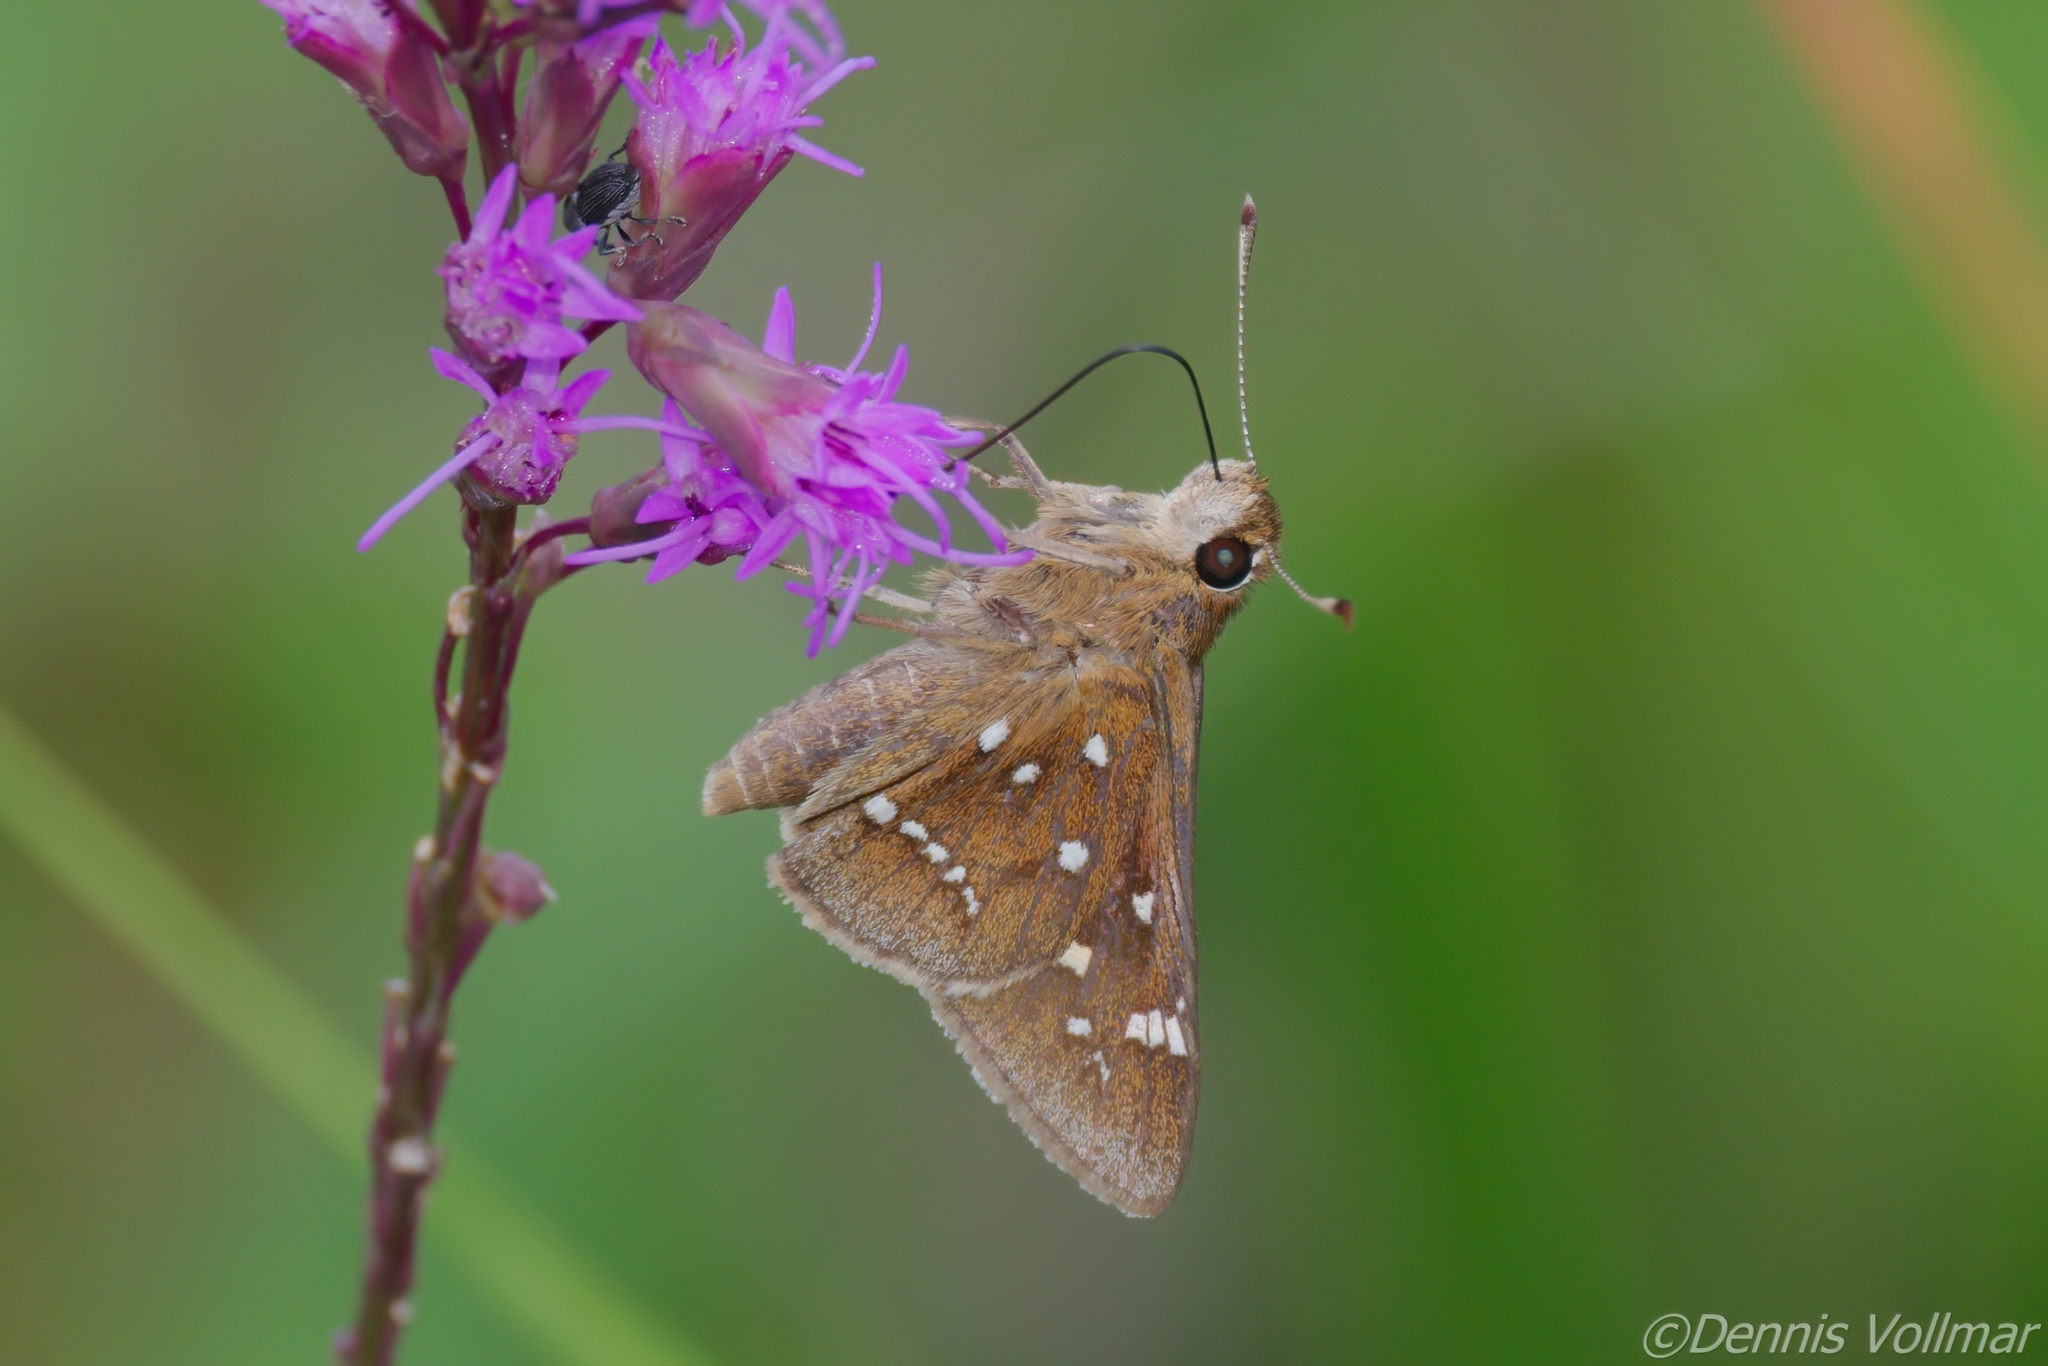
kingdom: Animalia
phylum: Arthropoda
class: Insecta
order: Lepidoptera
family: Hesperiidae
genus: Atrytonopsis
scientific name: Atrytonopsis loammi
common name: Loammi skipper
